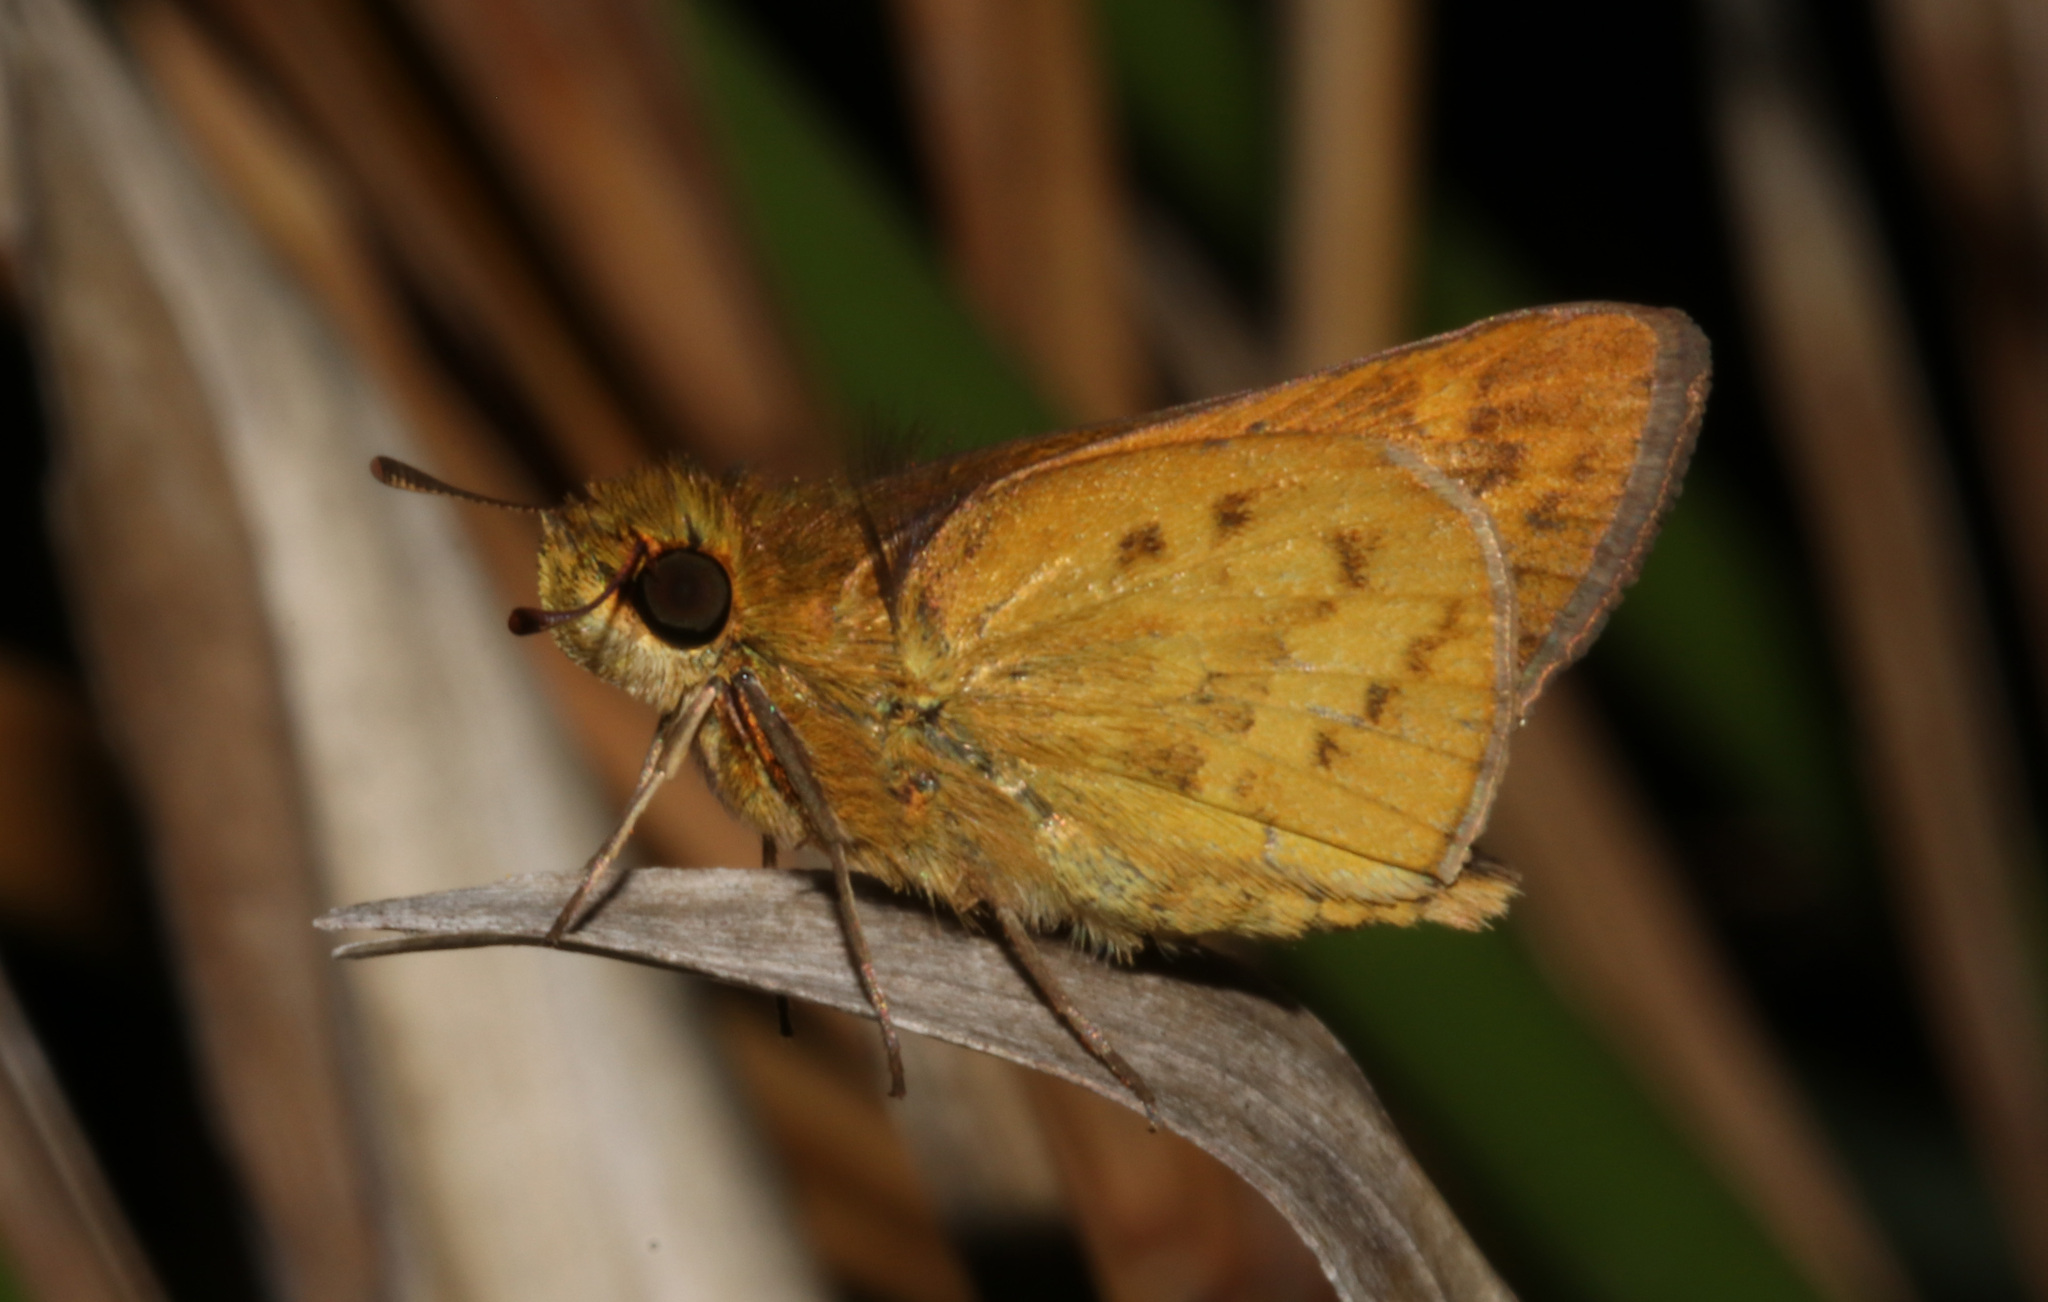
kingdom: Animalia
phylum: Arthropoda
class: Insecta
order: Lepidoptera
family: Hesperiidae
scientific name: Hesperiidae
